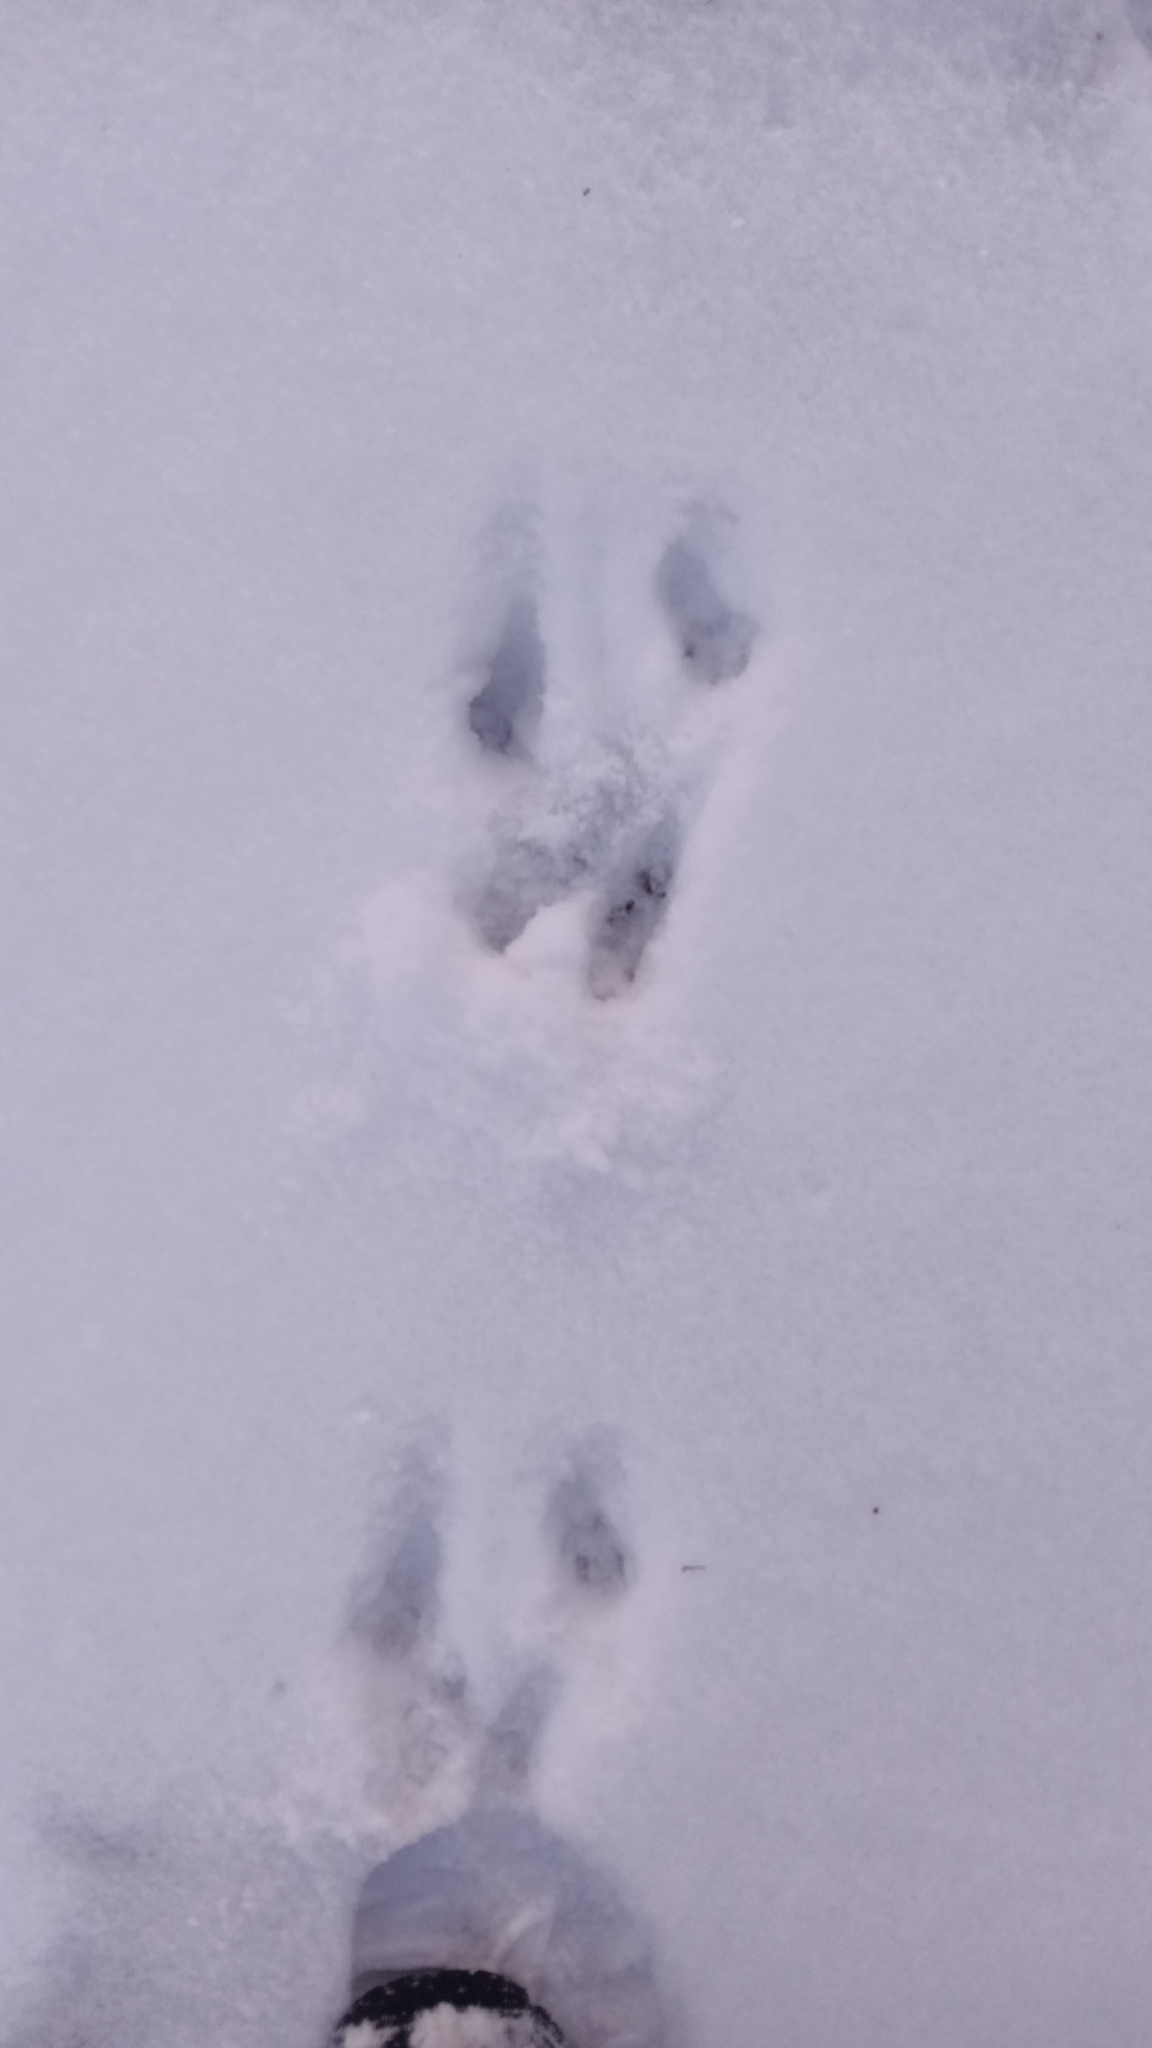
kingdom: Animalia
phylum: Chordata
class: Mammalia
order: Rodentia
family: Sciuridae
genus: Sciurus
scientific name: Sciurus carolinensis
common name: Eastern gray squirrel
